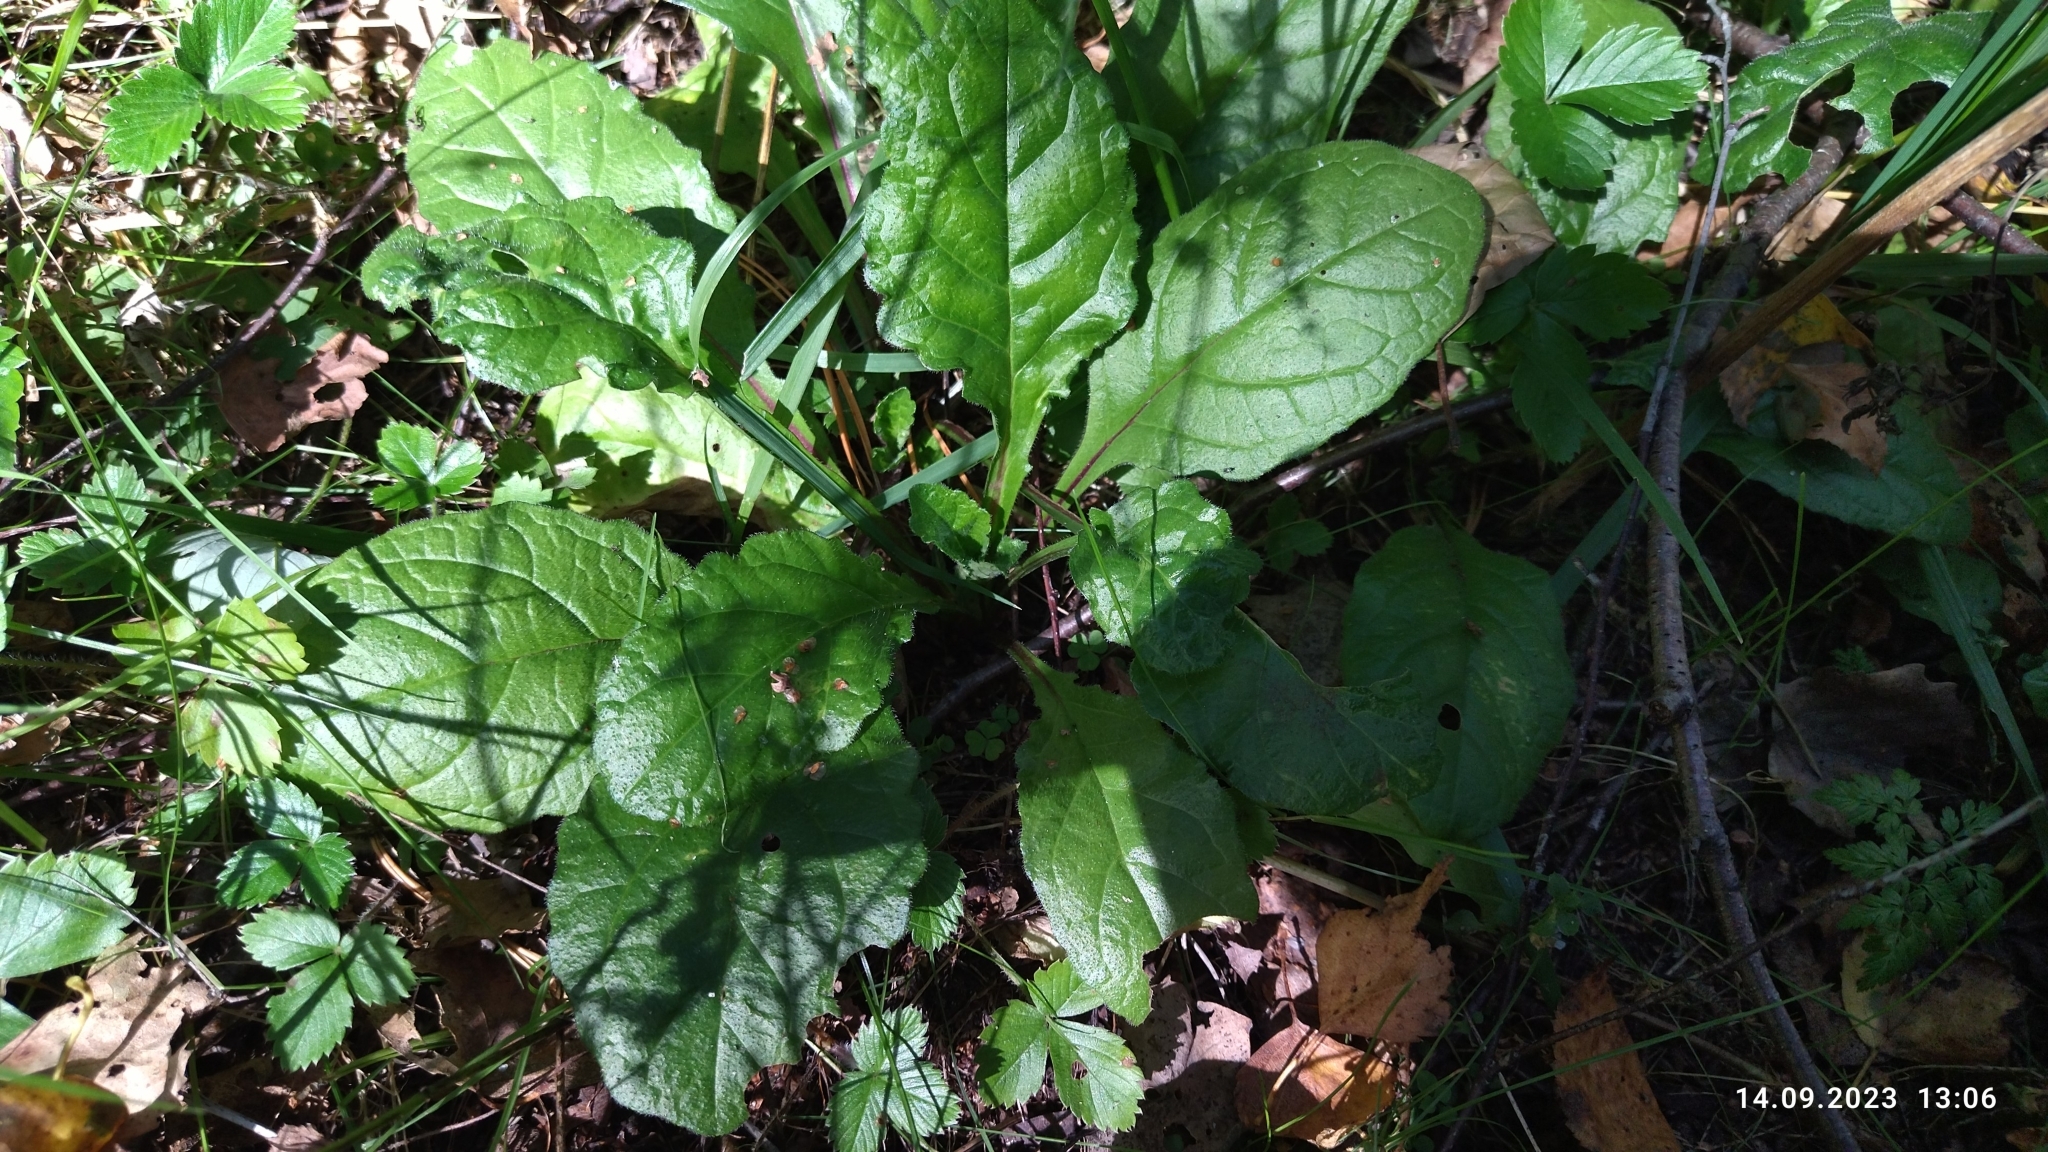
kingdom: Plantae
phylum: Tracheophyta
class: Magnoliopsida
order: Lamiales
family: Lamiaceae
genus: Ajuga
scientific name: Ajuga reptans
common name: Bugle
